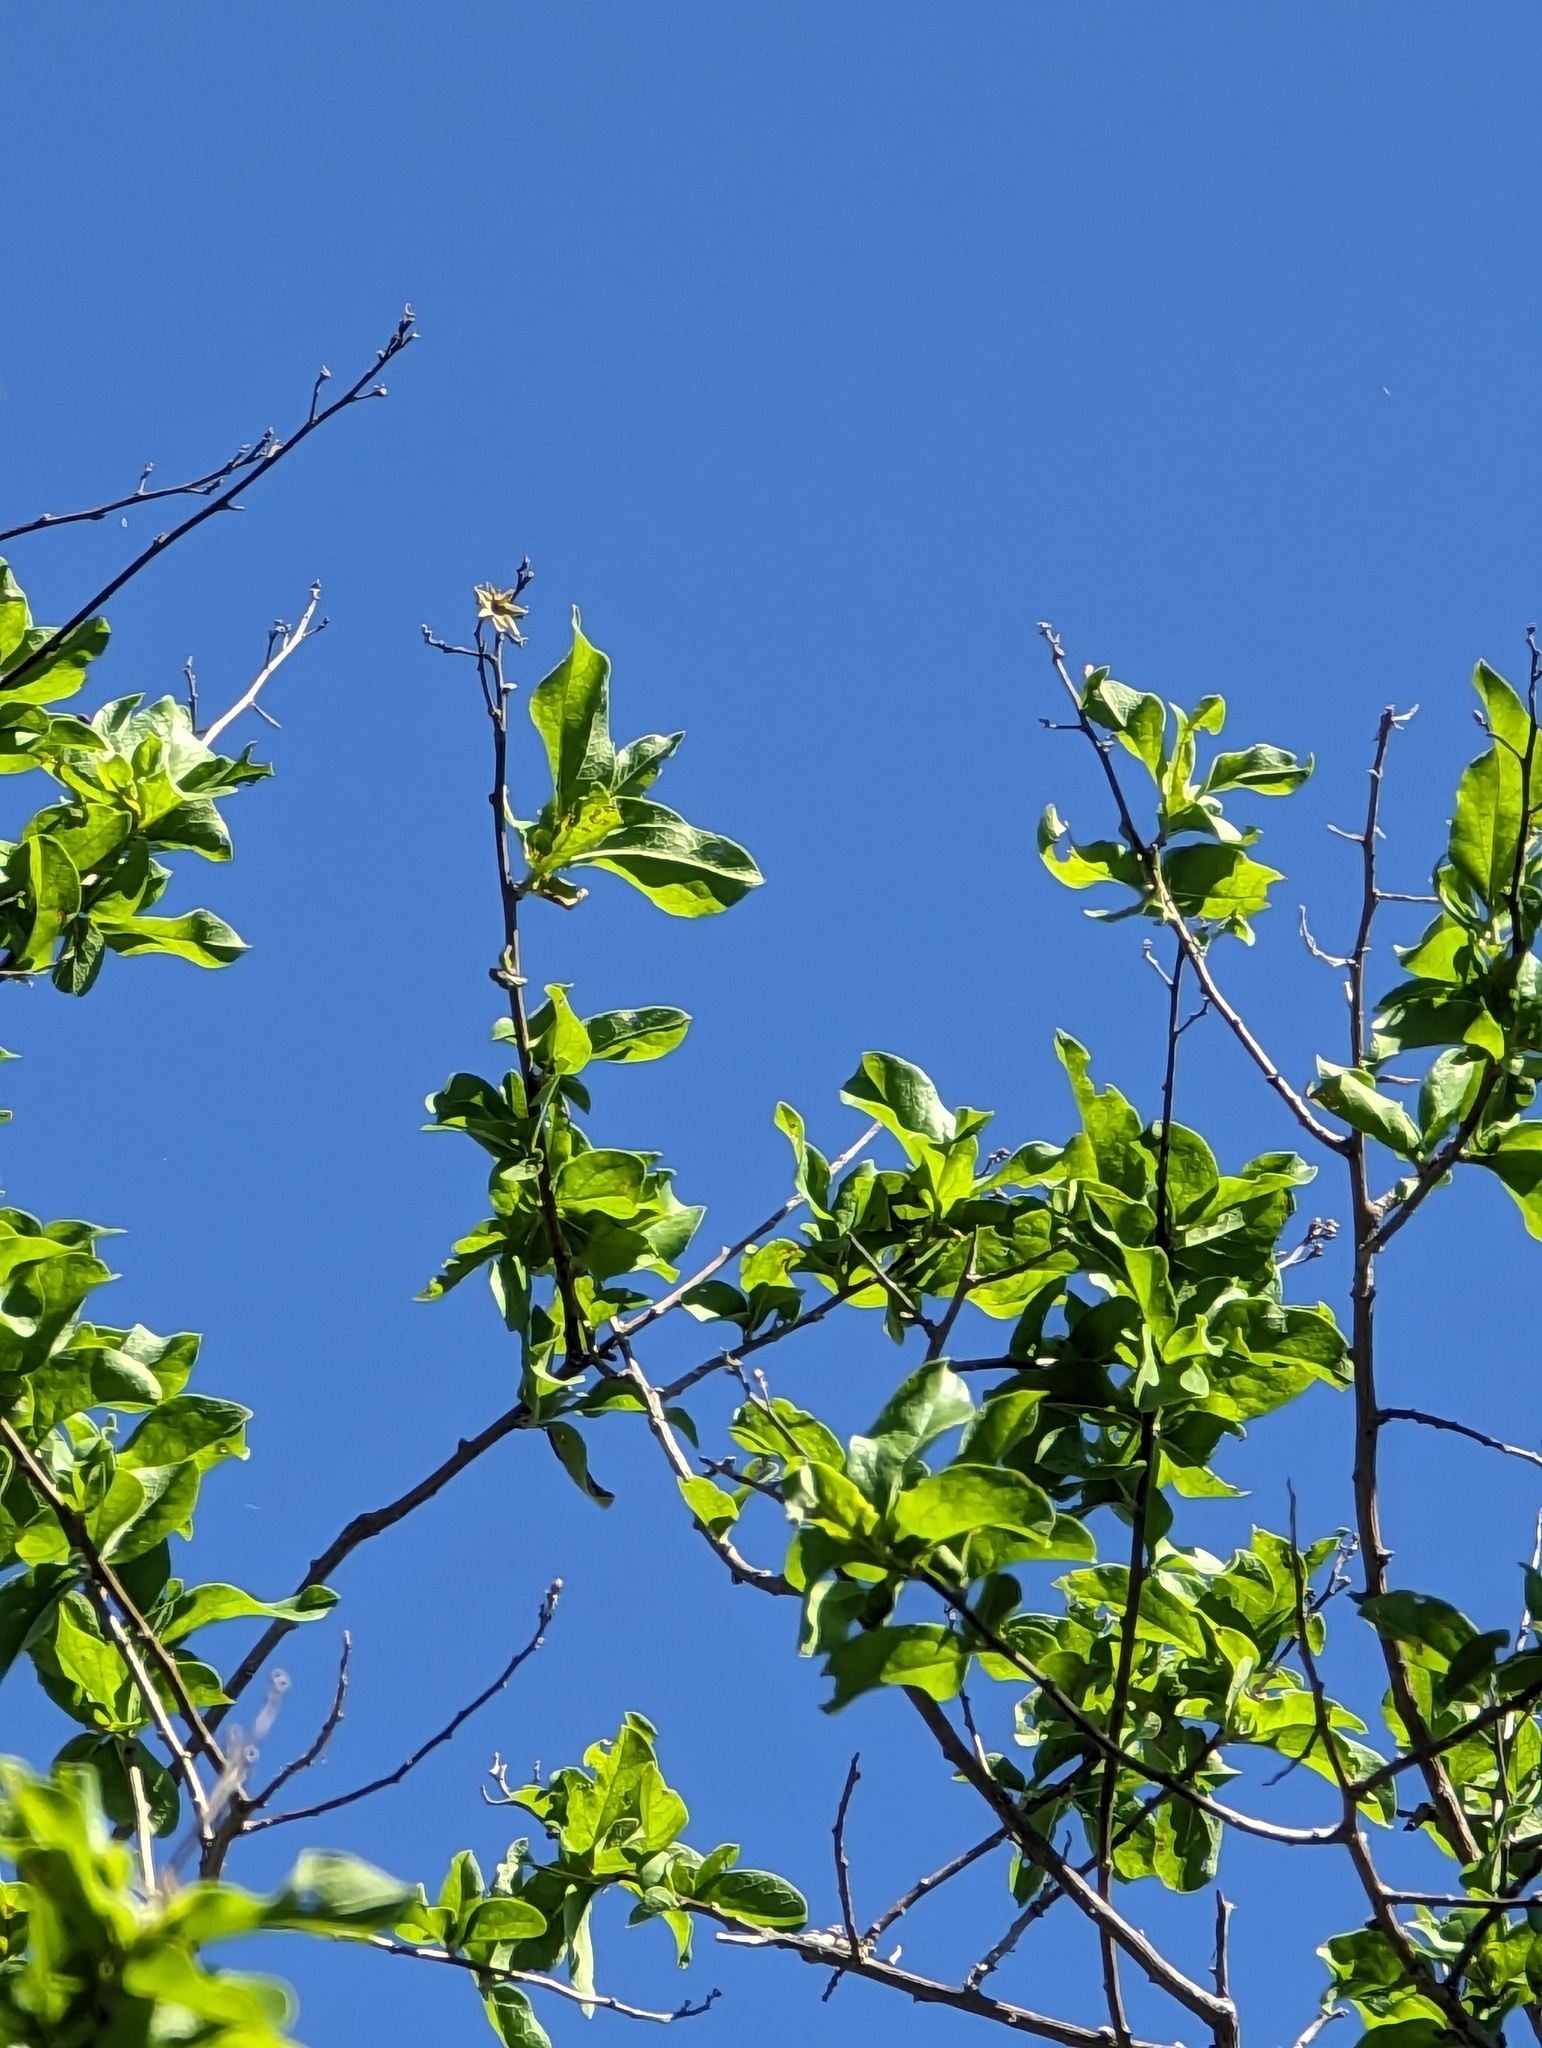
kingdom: Plantae
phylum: Tracheophyta
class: Magnoliopsida
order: Asterales
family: Asteraceae
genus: Nahuatlea
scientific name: Nahuatlea arborescens
